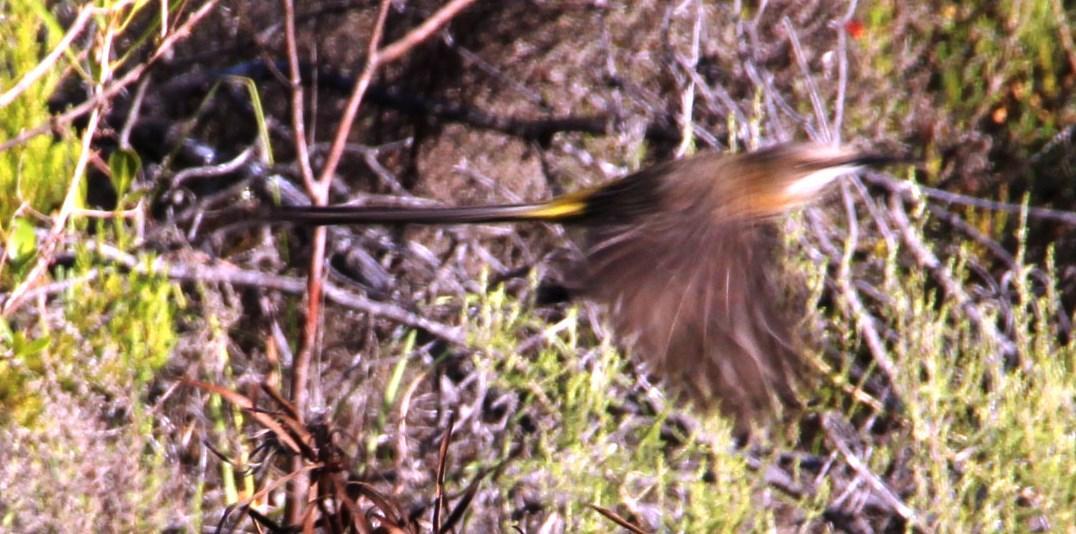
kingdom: Animalia
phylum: Chordata
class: Aves
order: Passeriformes
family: Promeropidae
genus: Promerops
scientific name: Promerops cafer
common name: Cape sugarbird
